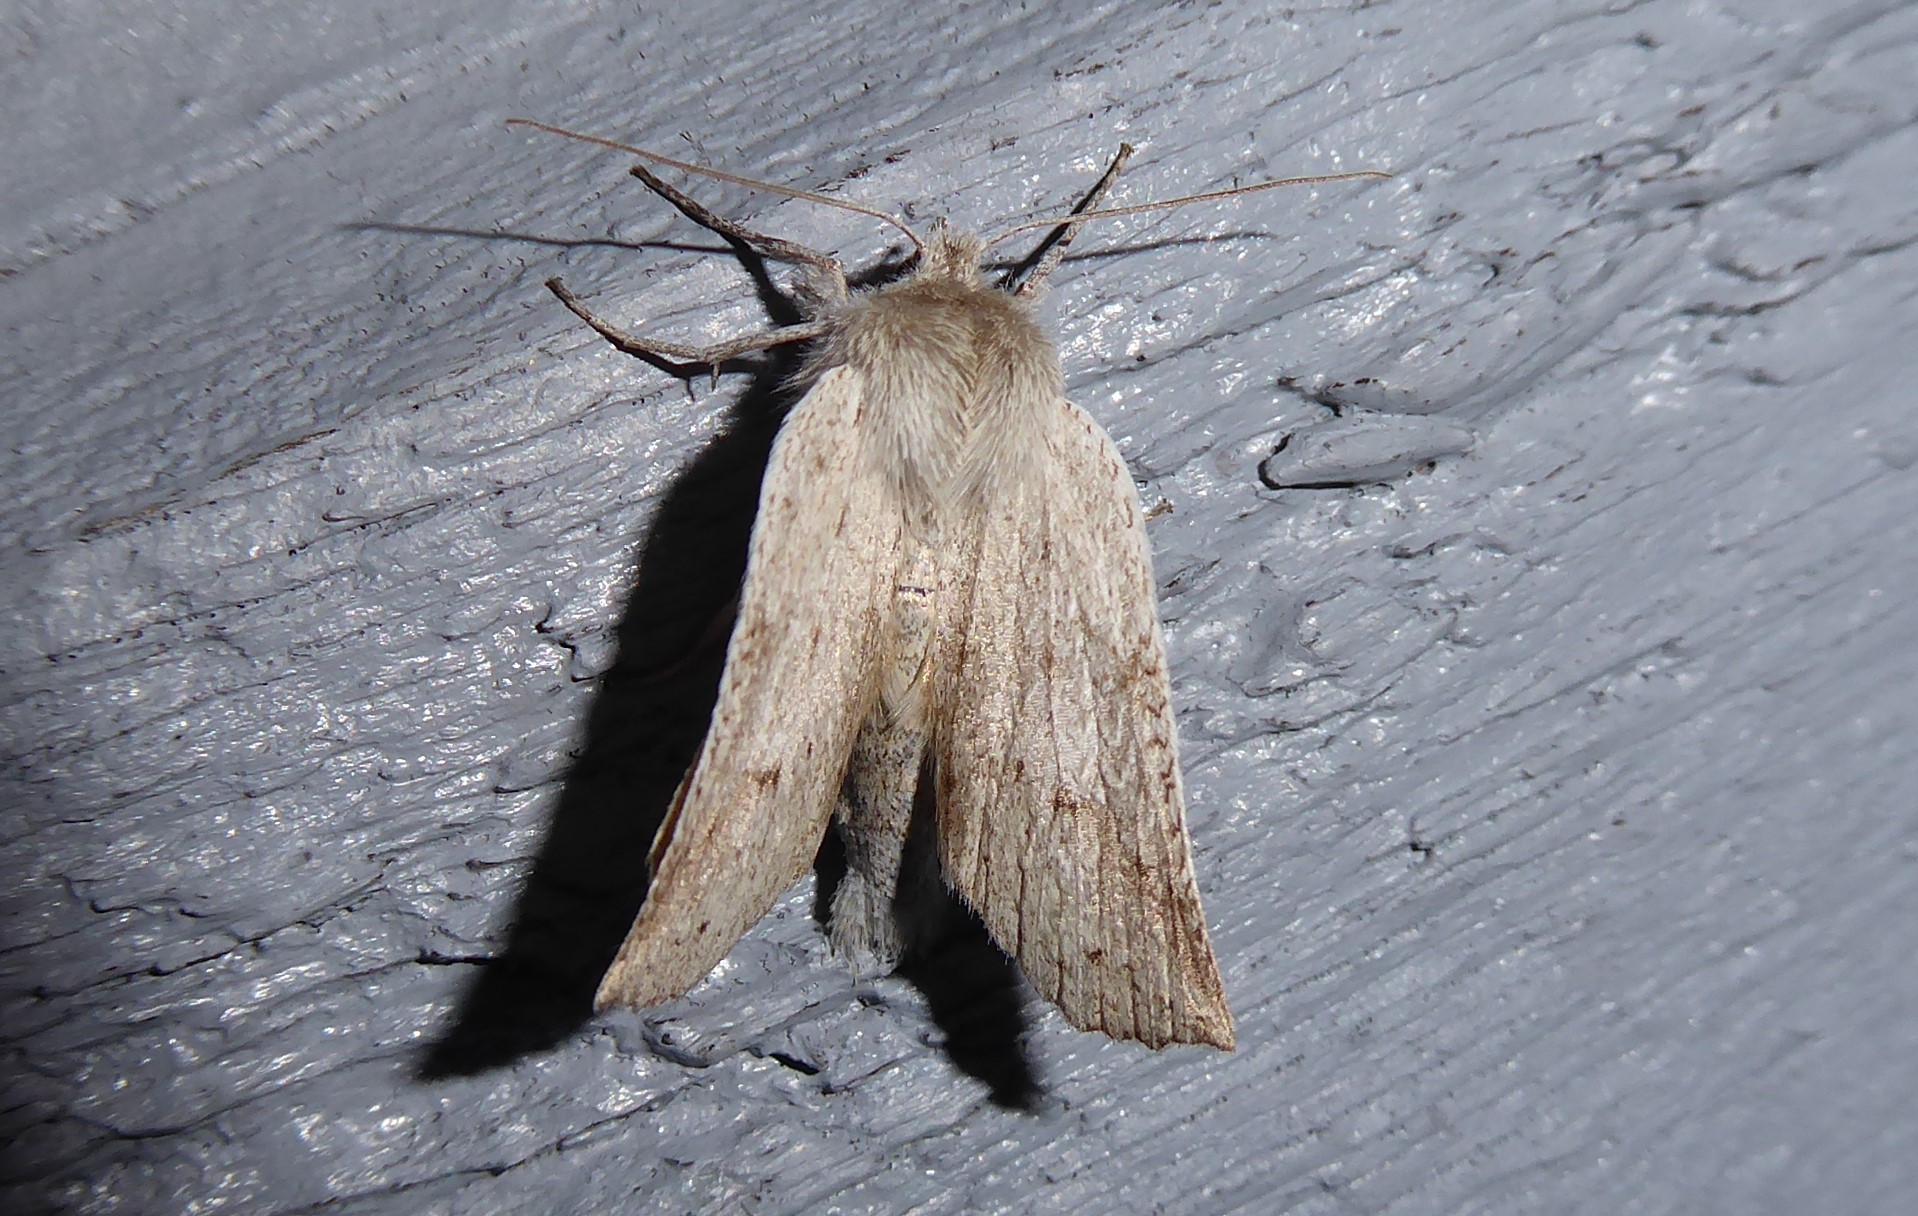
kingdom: Animalia
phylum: Arthropoda
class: Insecta
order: Lepidoptera
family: Geometridae
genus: Declana
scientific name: Declana leptomera
